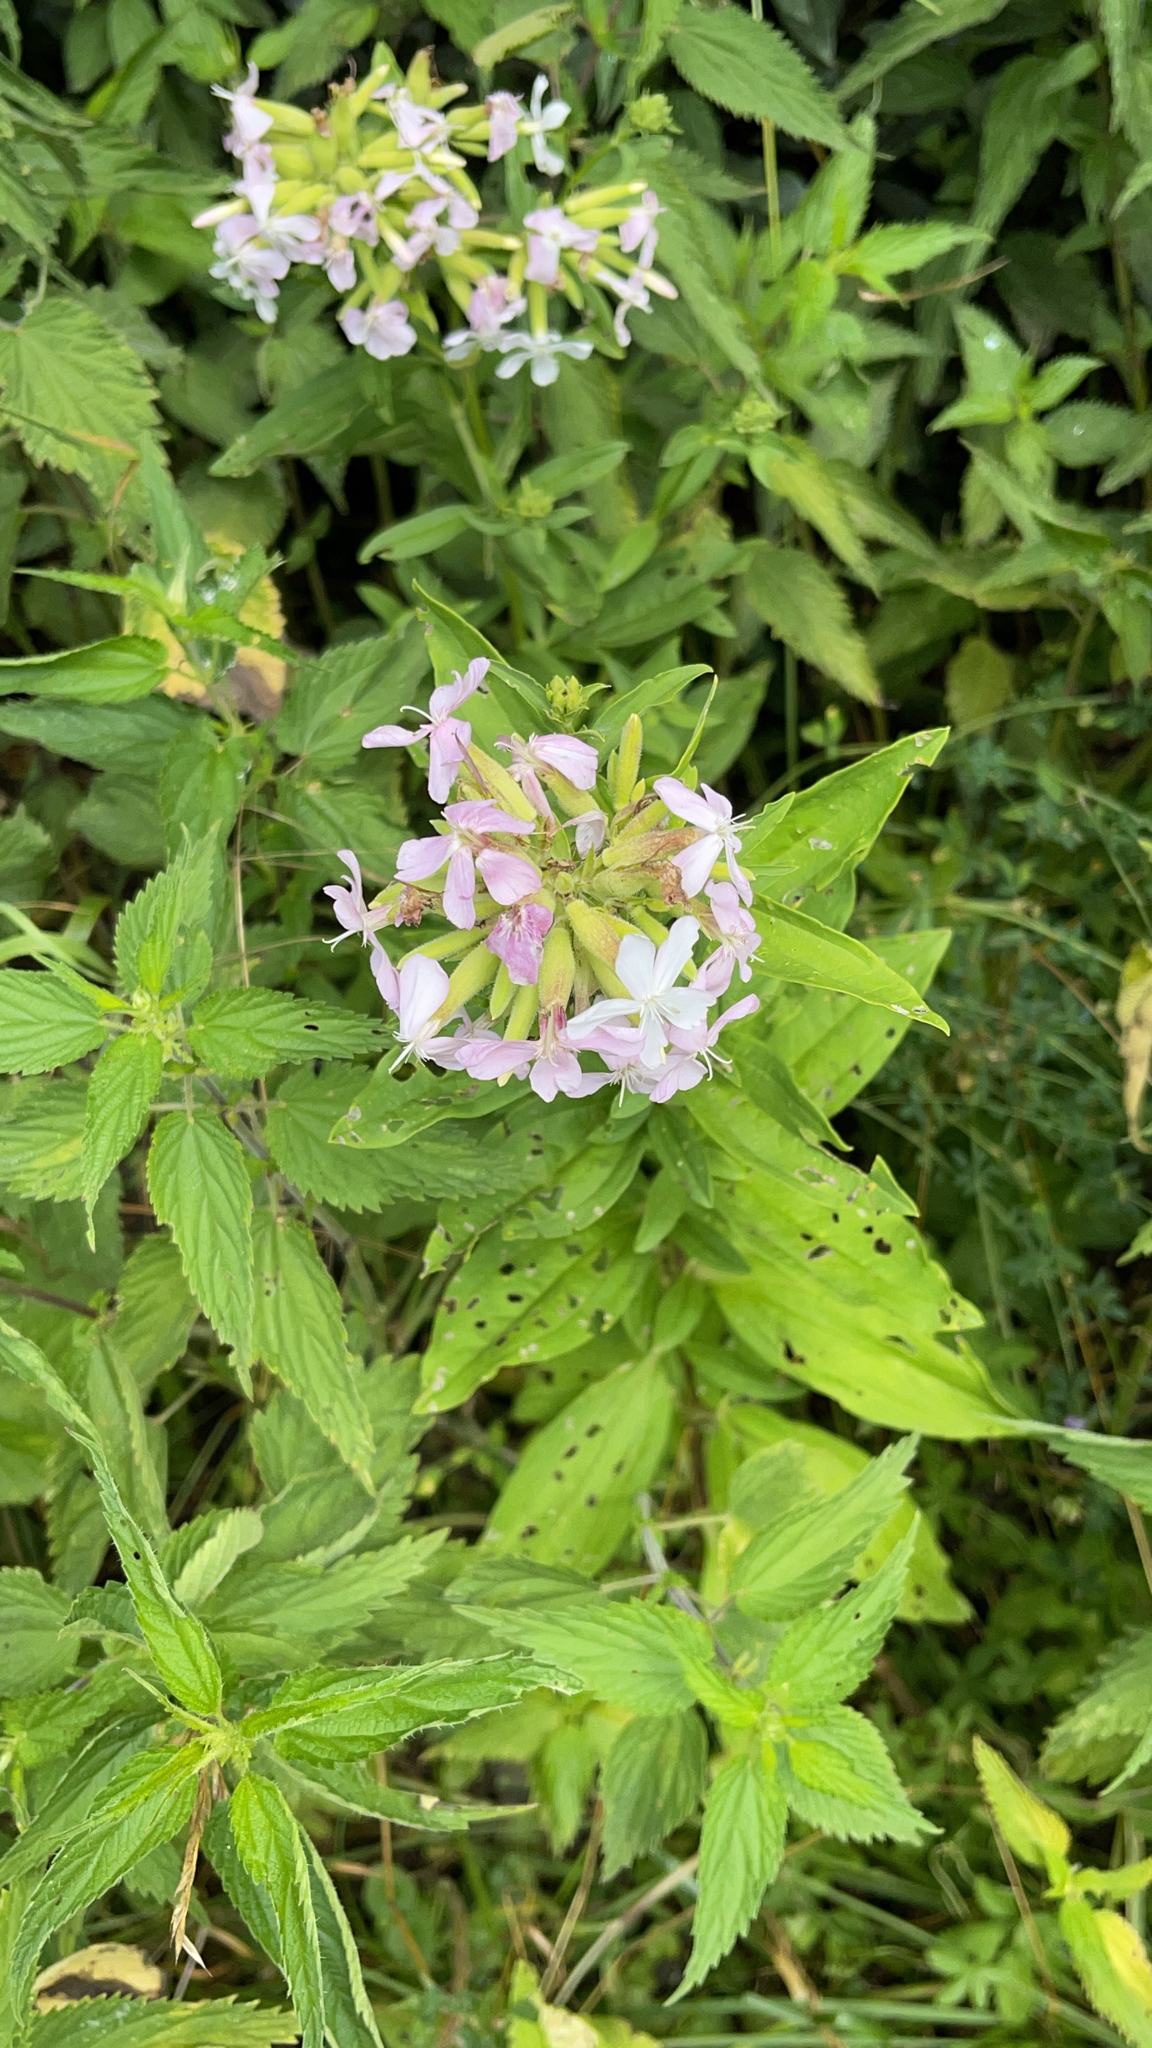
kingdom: Plantae
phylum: Tracheophyta
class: Magnoliopsida
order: Caryophyllales
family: Caryophyllaceae
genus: Saponaria
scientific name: Saponaria officinalis
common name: Soapwort
